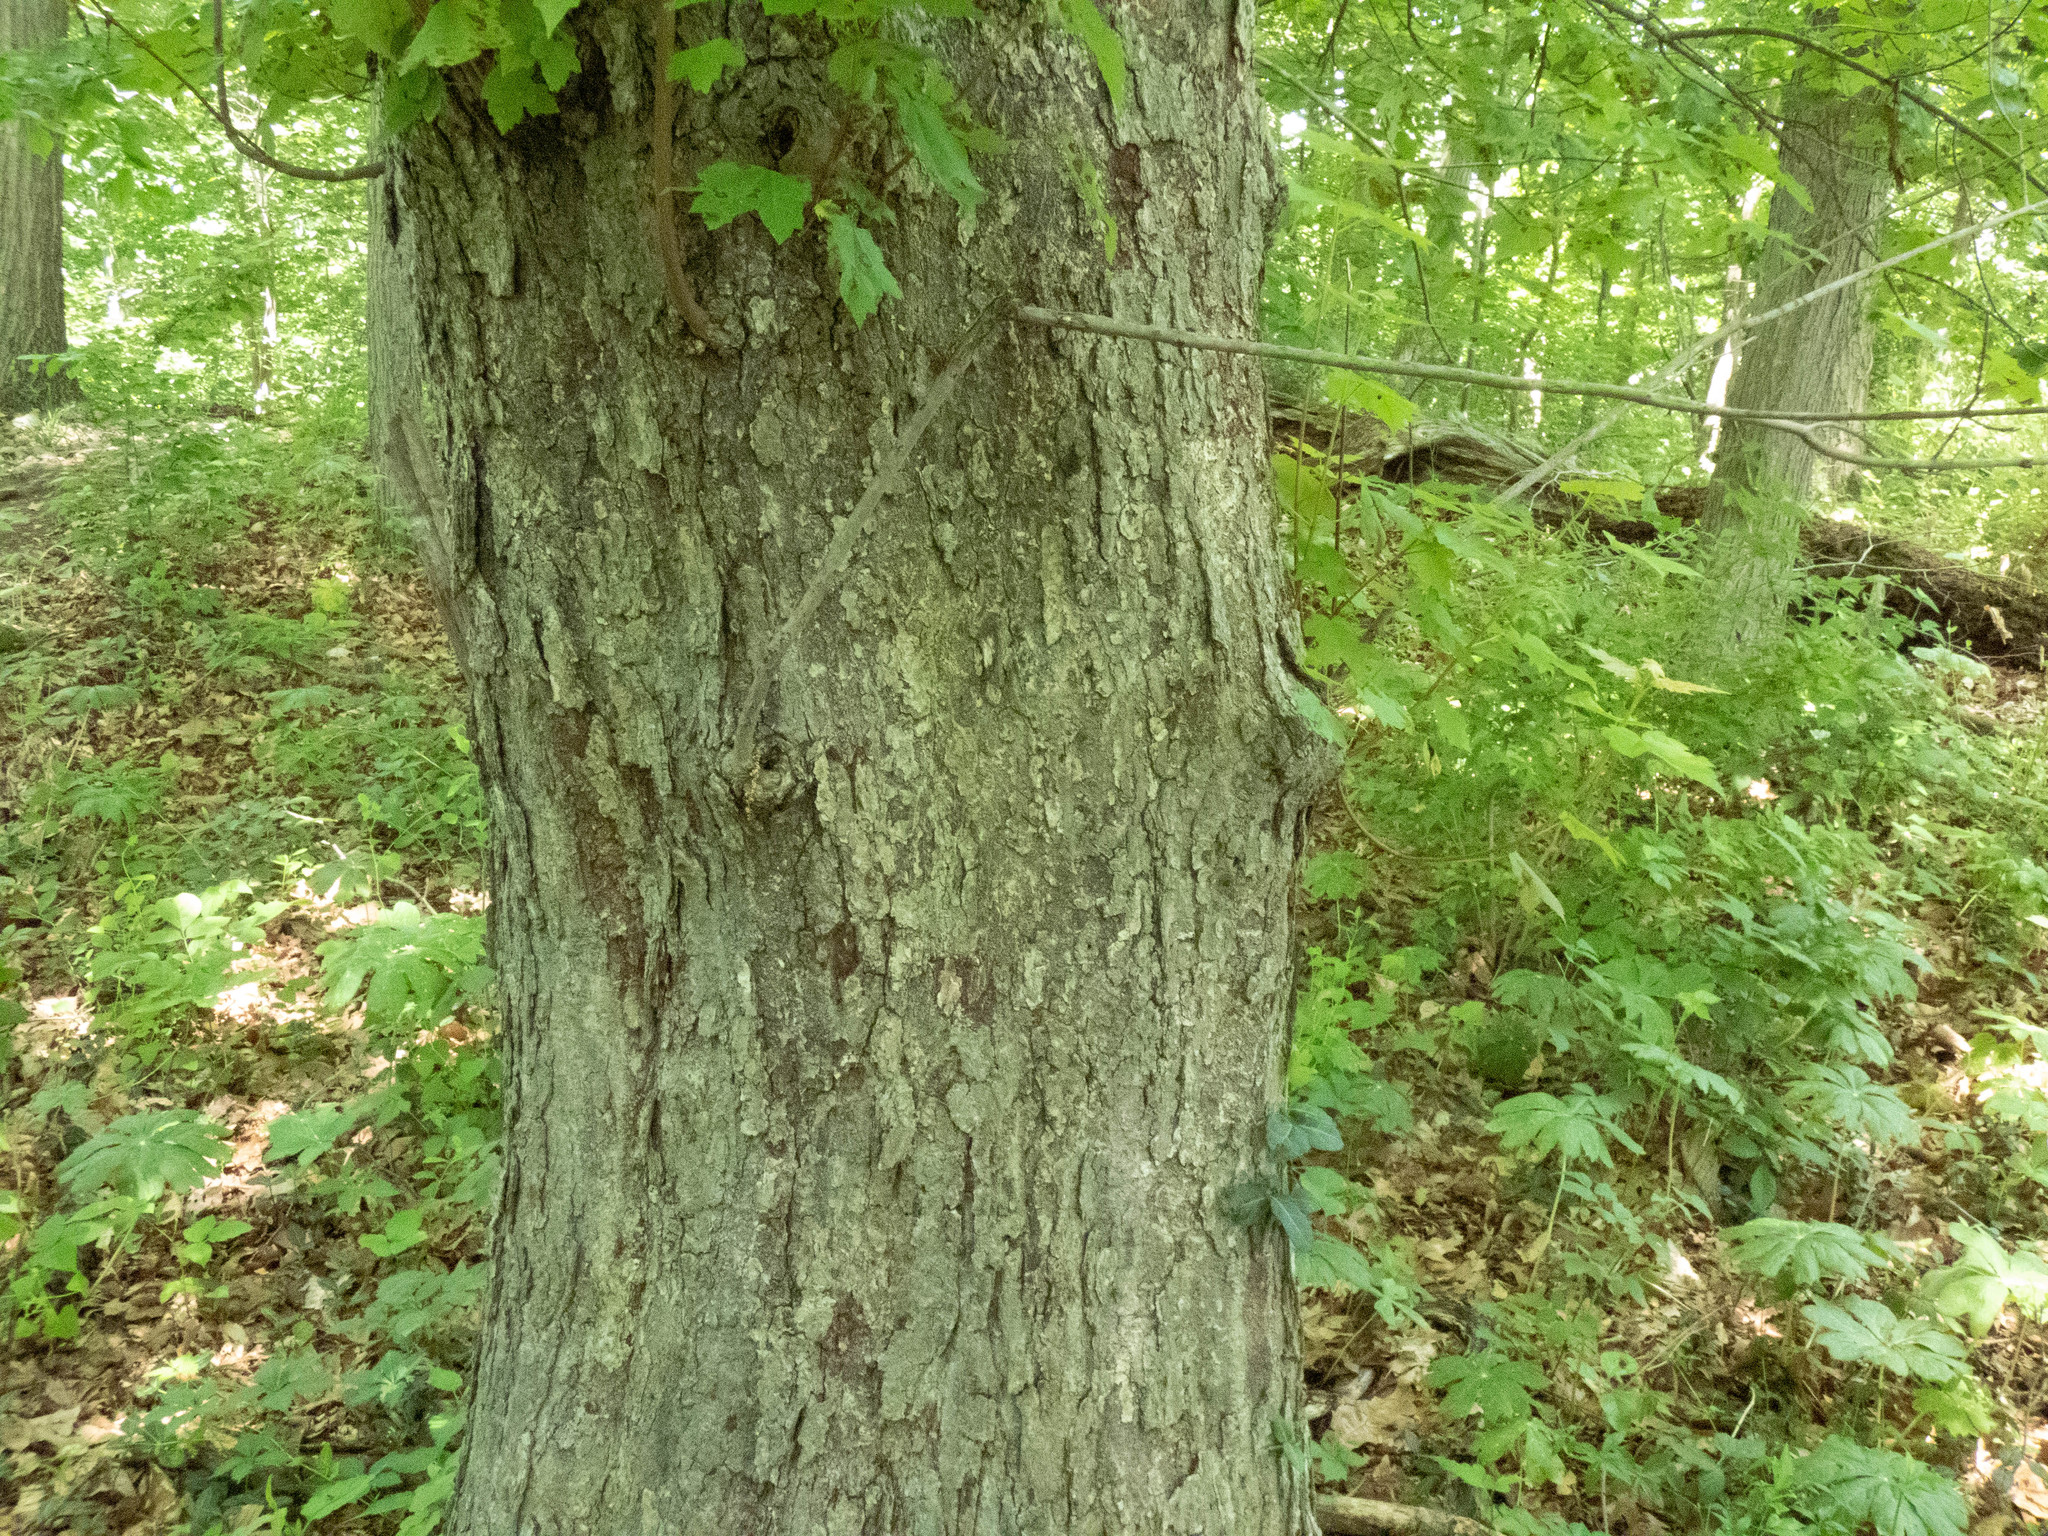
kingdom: Plantae
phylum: Tracheophyta
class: Magnoliopsida
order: Sapindales
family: Sapindaceae
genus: Acer
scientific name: Acer rubrum
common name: Red maple
